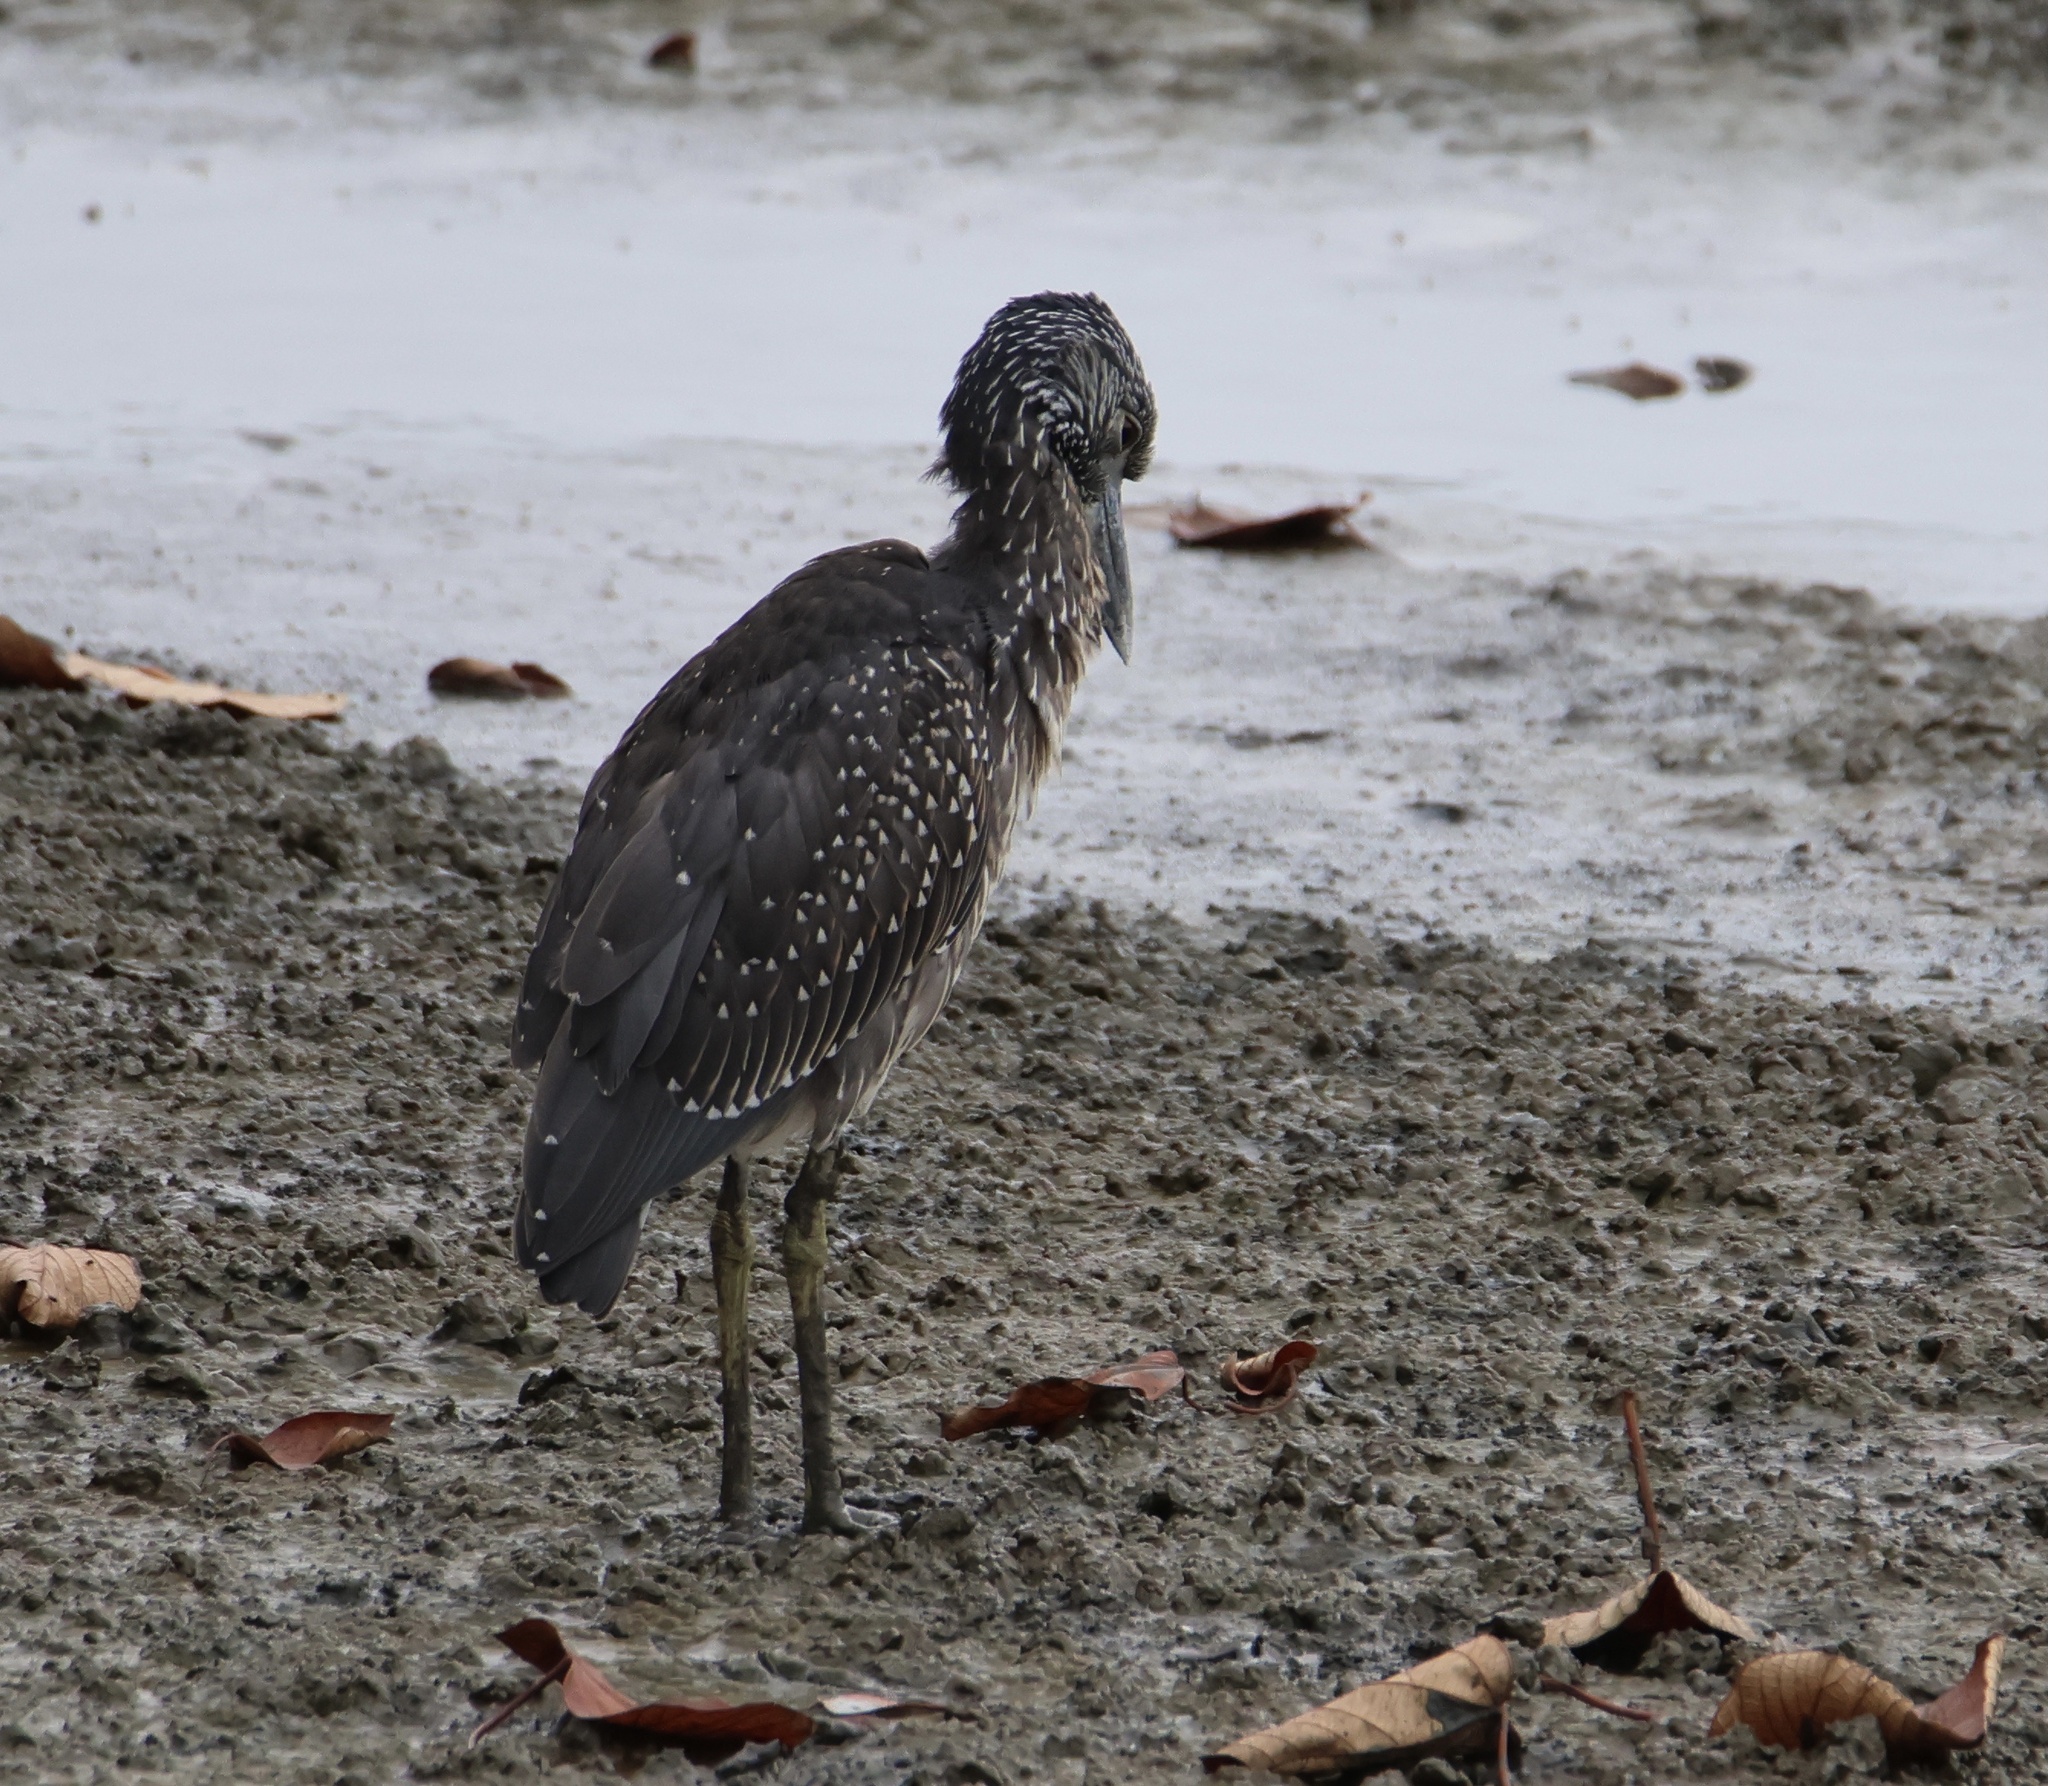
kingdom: Animalia
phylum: Chordata
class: Aves
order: Pelecaniformes
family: Ardeidae
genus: Nyctanassa
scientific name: Nyctanassa violacea
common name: Yellow-crowned night heron
